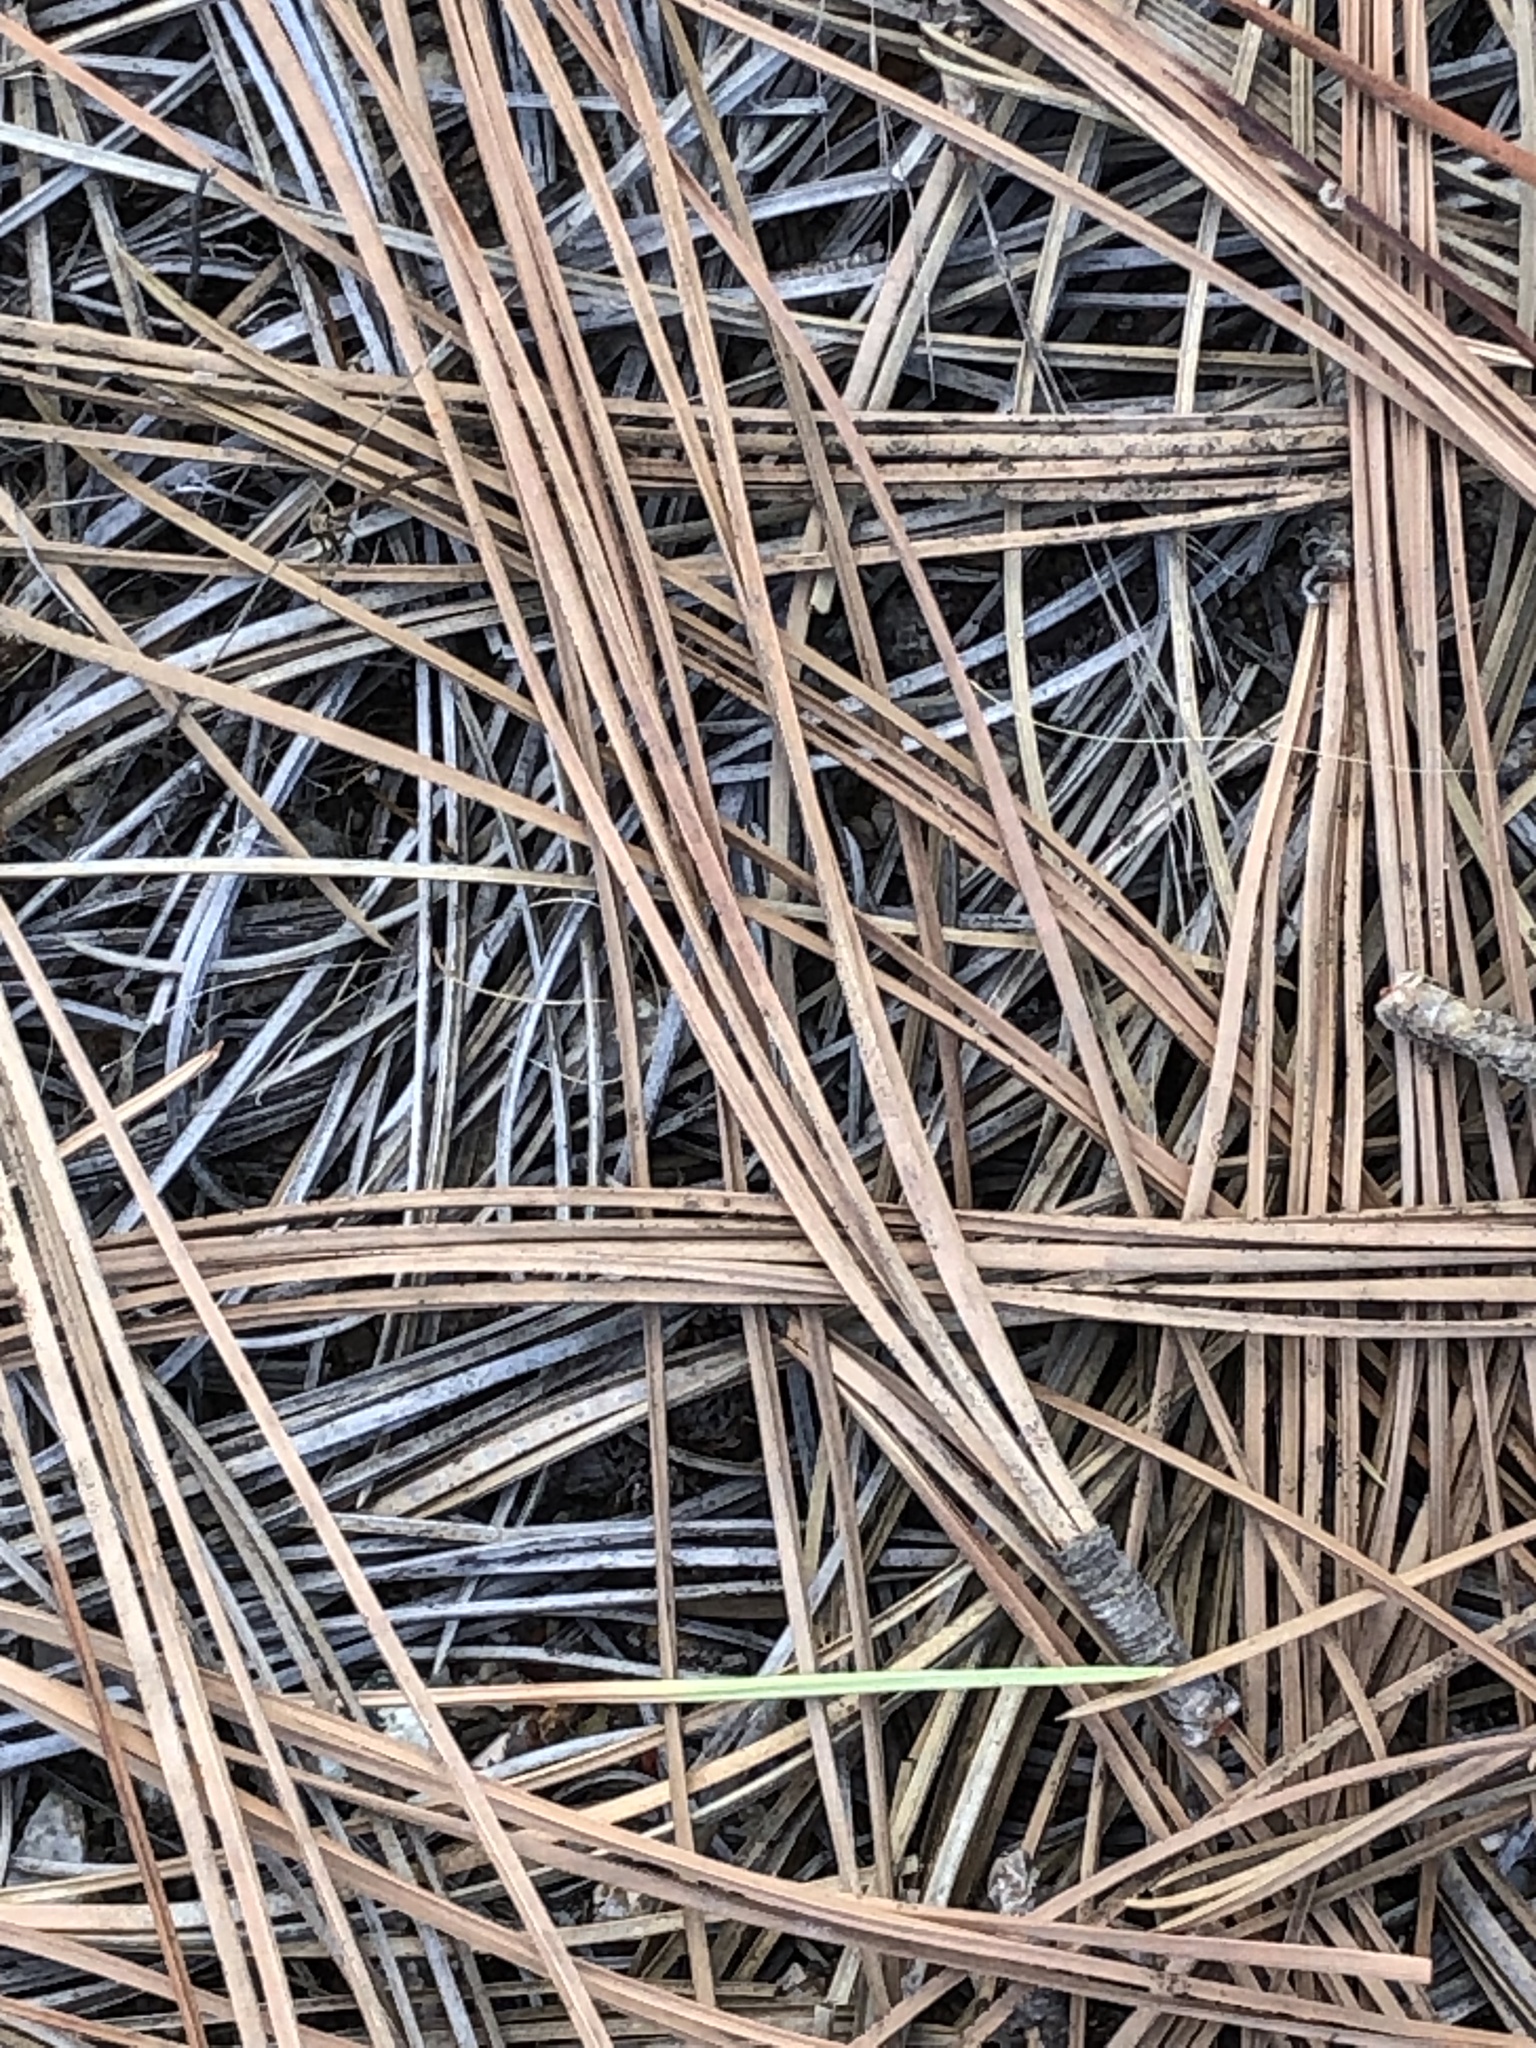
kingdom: Plantae
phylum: Tracheophyta
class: Pinopsida
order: Pinales
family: Pinaceae
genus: Pinus
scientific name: Pinus torreyana
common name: Torrey pine
